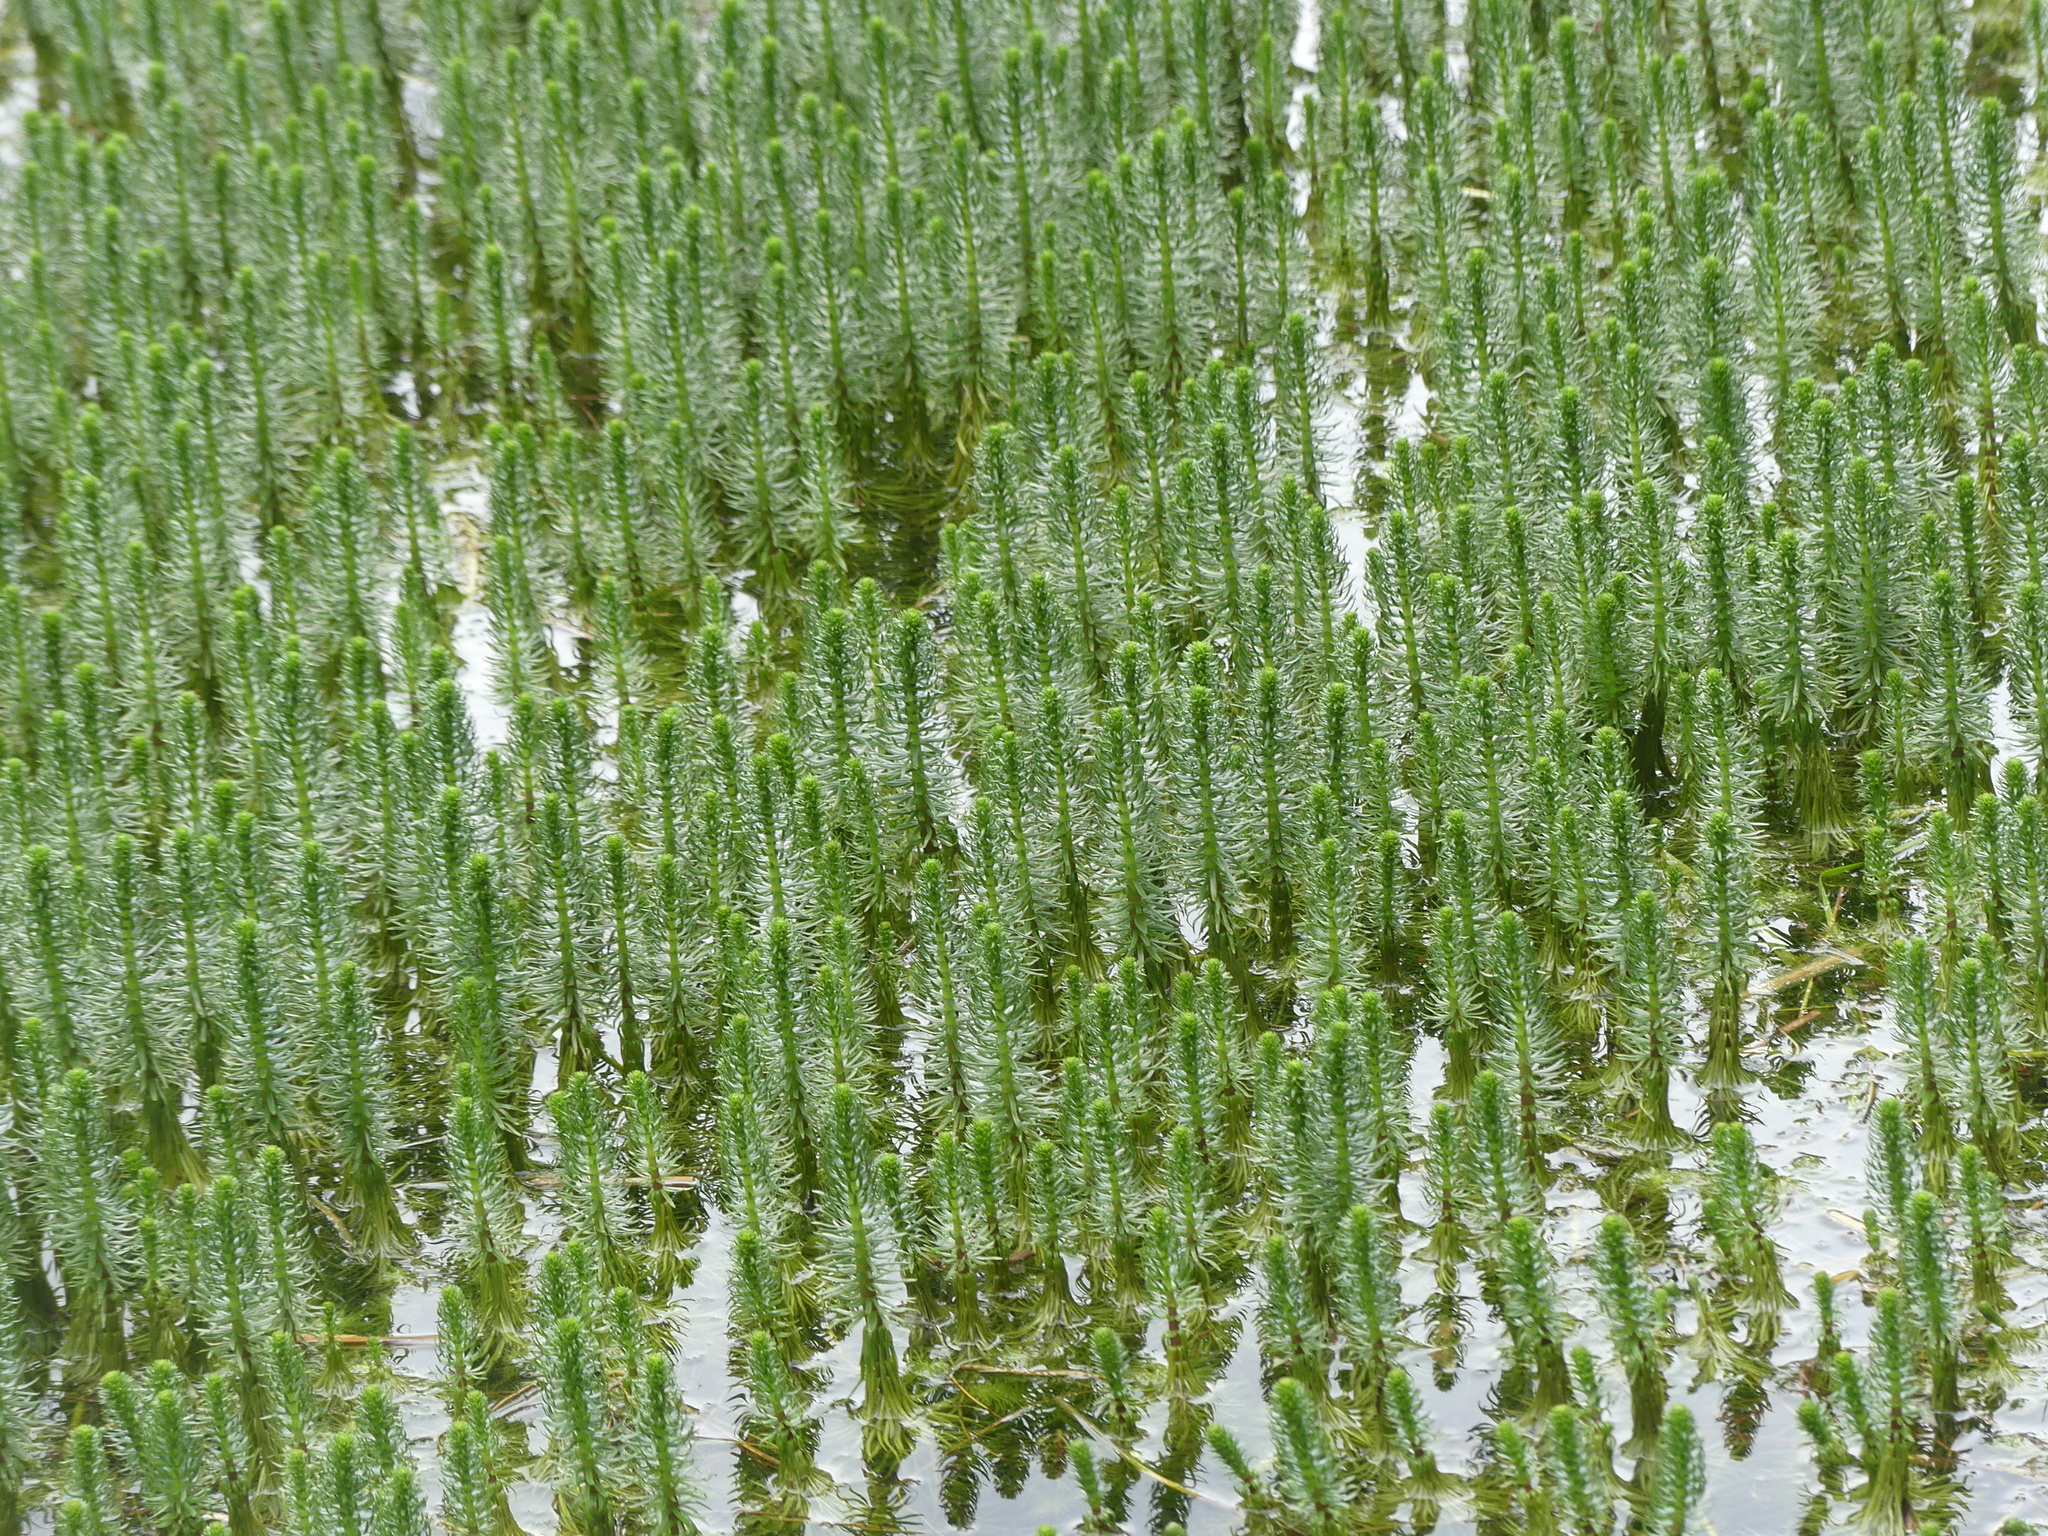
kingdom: Plantae
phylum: Tracheophyta
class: Magnoliopsida
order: Lamiales
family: Plantaginaceae
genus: Hippuris
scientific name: Hippuris vulgaris
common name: Mare's-tail
